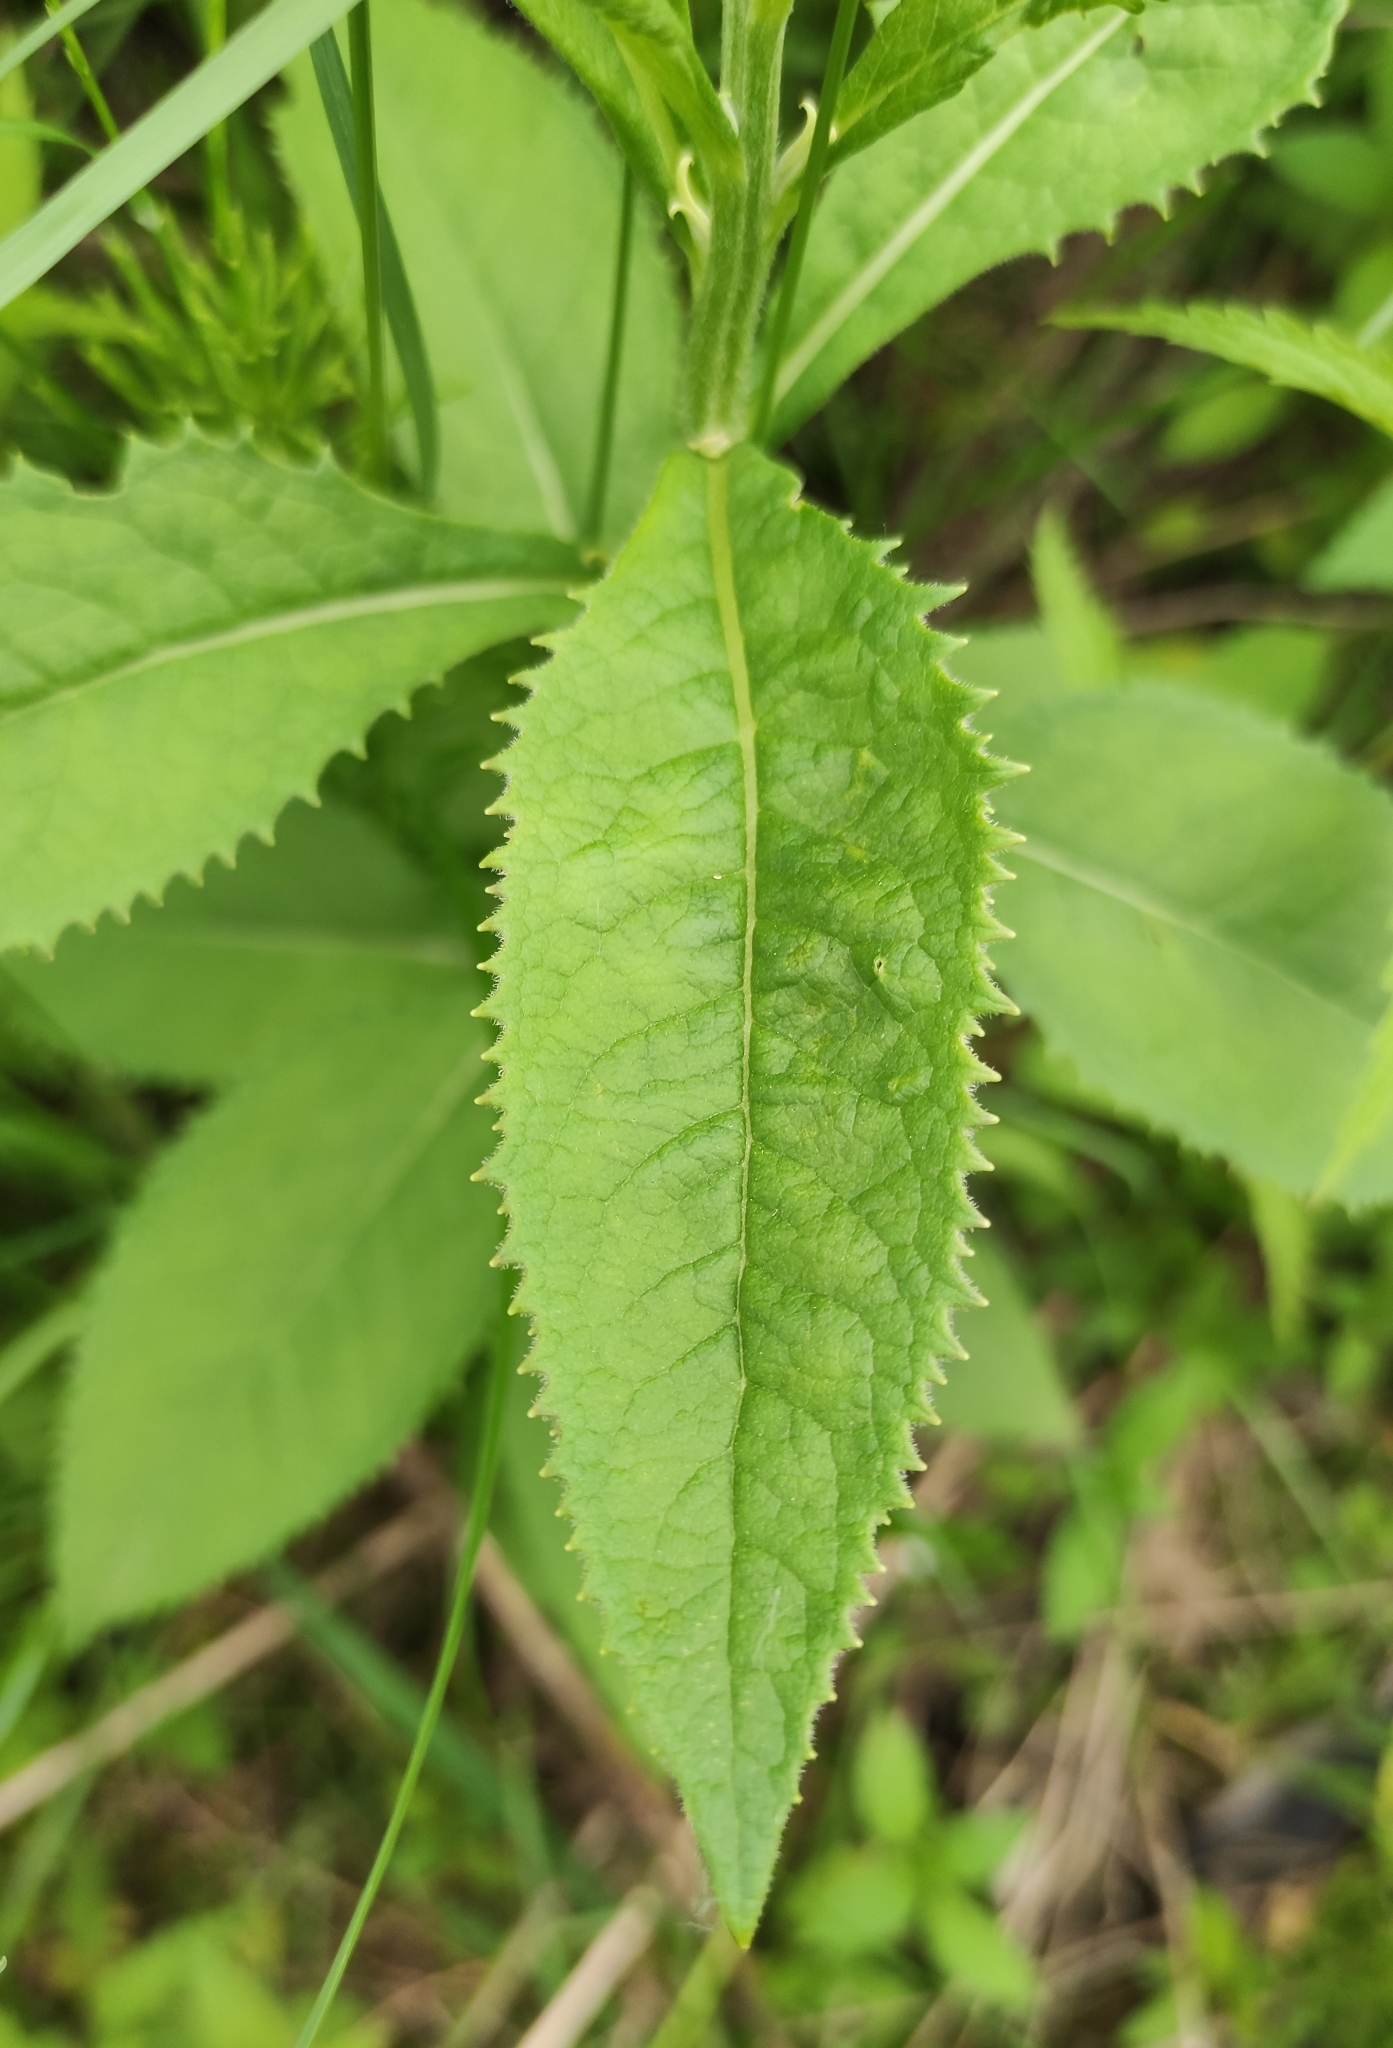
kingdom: Plantae
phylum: Tracheophyta
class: Magnoliopsida
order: Asterales
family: Asteraceae
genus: Senecio
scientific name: Senecio nemorensis
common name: Alpine ragwort
